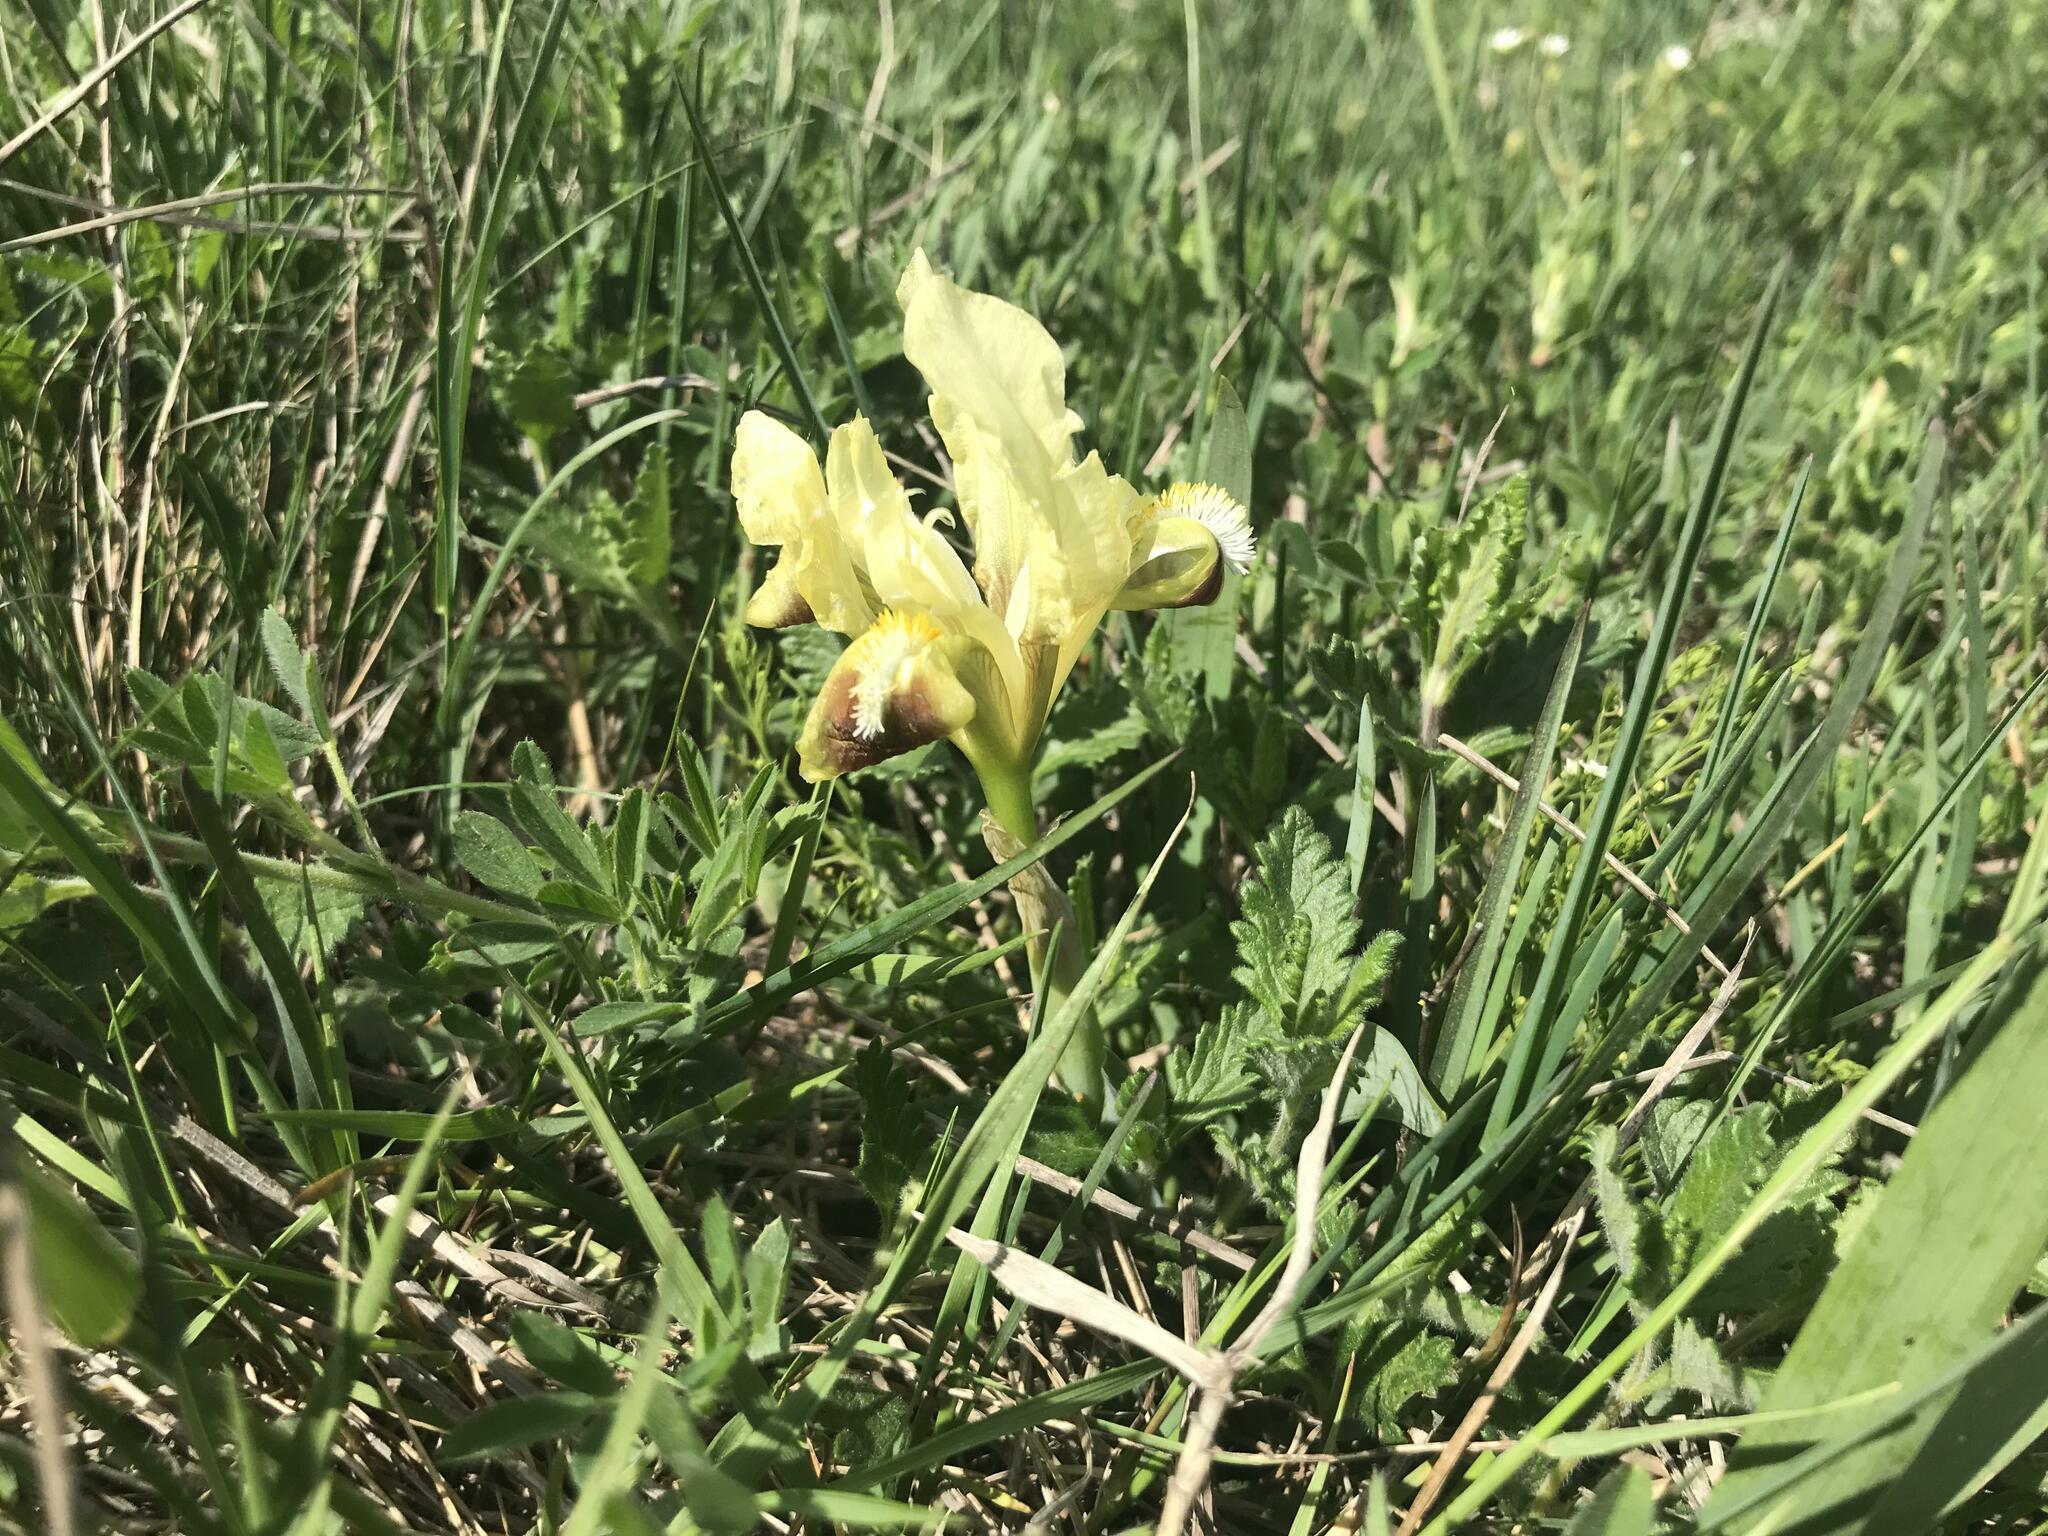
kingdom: Plantae
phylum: Tracheophyta
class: Liliopsida
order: Asparagales
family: Iridaceae
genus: Iris
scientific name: Iris pumila
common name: Dwarf iris
